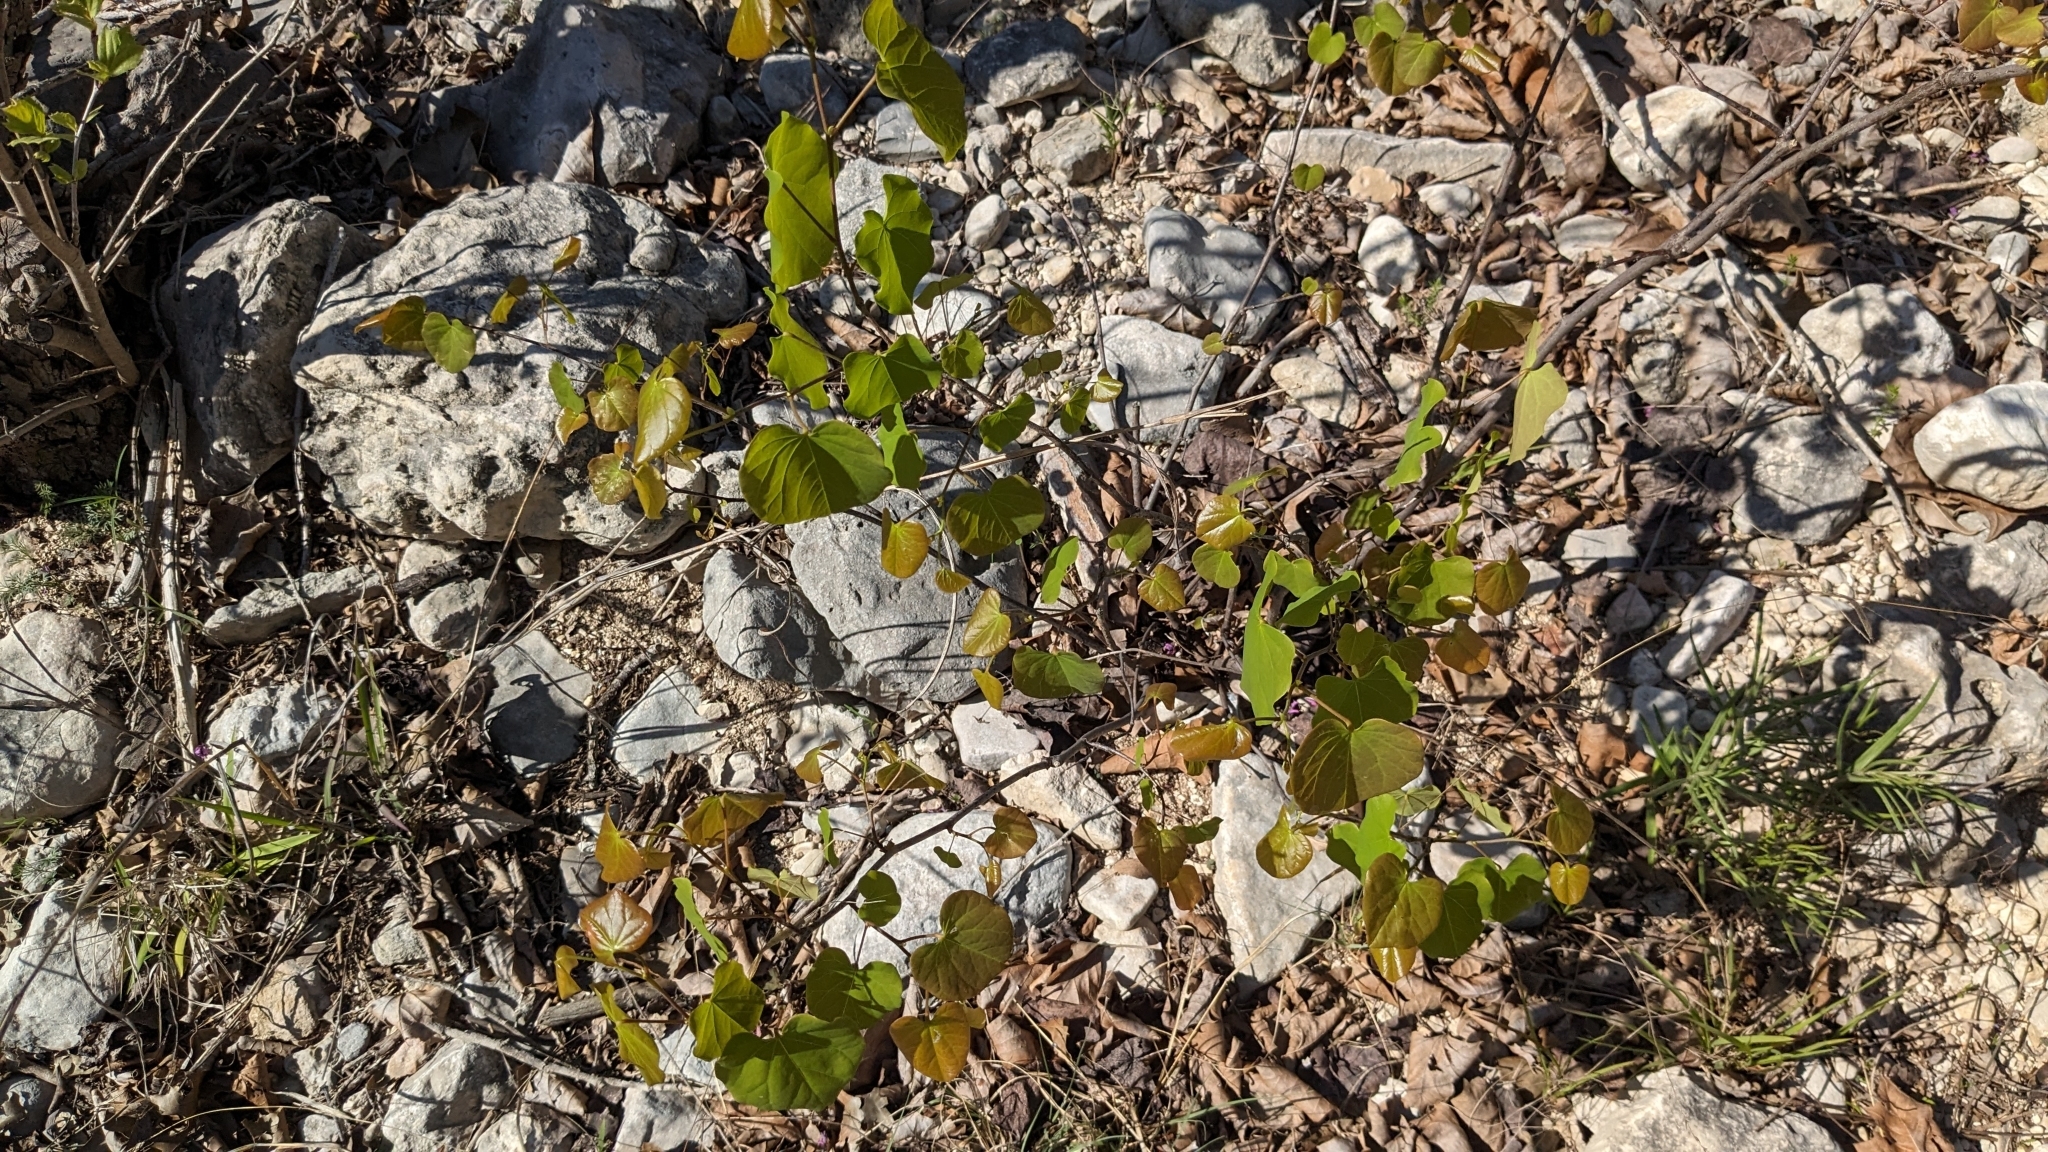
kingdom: Plantae
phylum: Tracheophyta
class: Magnoliopsida
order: Fabales
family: Fabaceae
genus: Cercis
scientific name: Cercis canadensis
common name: Eastern redbud
